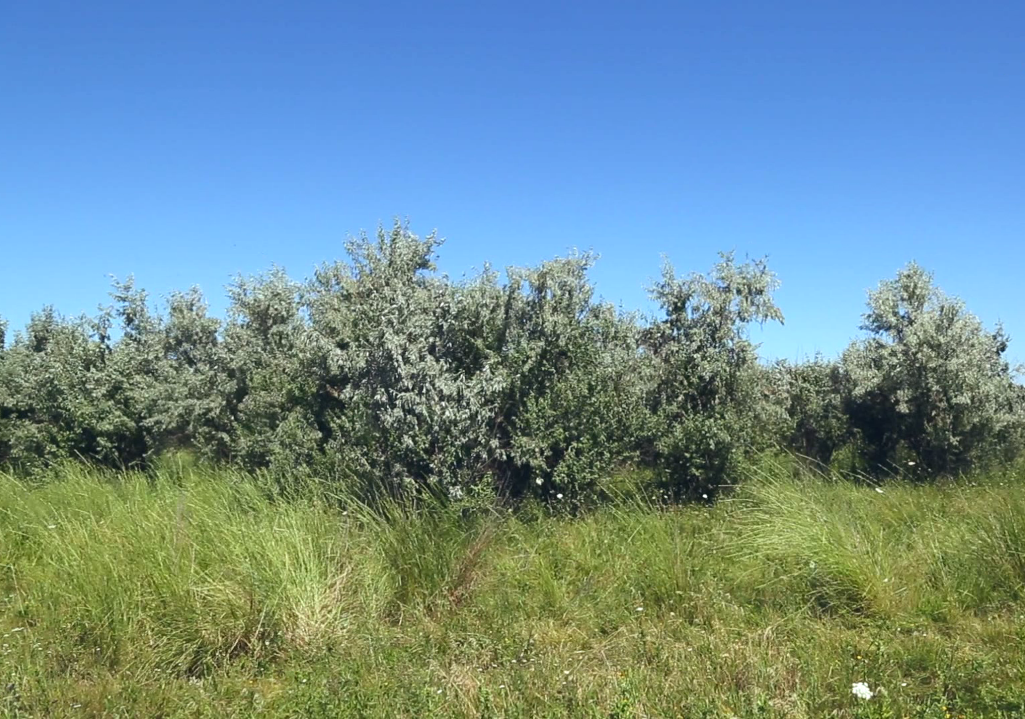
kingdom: Plantae
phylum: Tracheophyta
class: Magnoliopsida
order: Rosales
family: Elaeagnaceae
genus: Elaeagnus
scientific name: Elaeagnus angustifolia
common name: Russian olive
